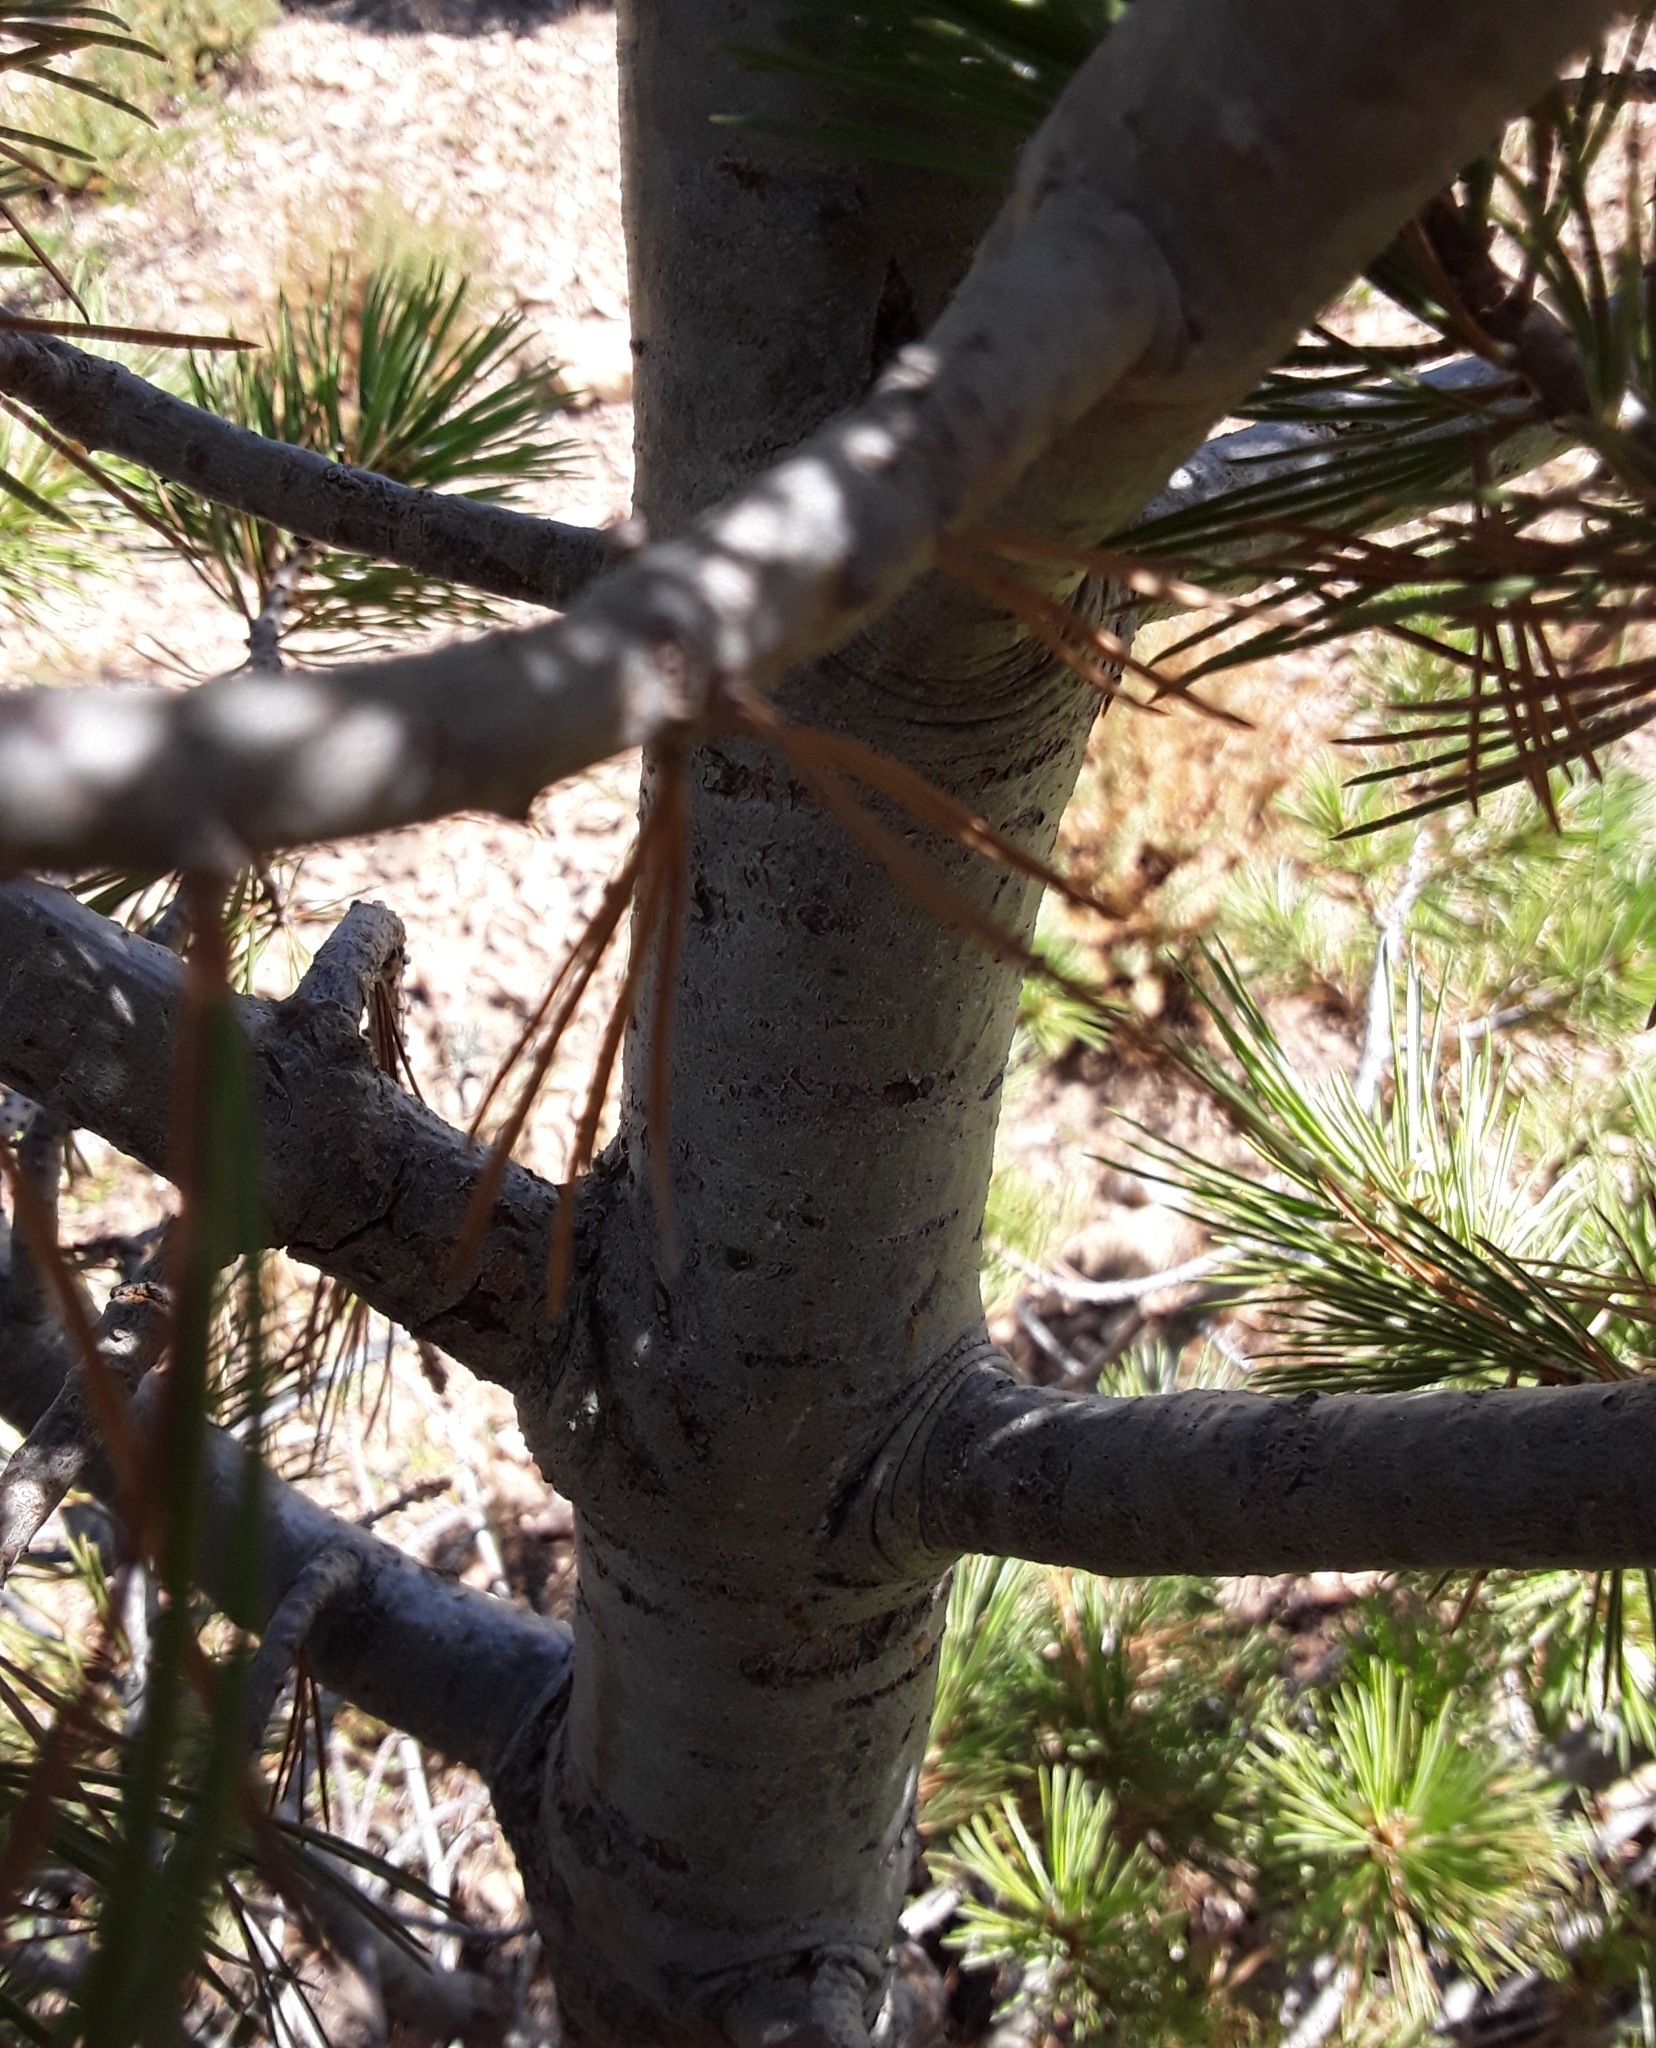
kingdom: Plantae
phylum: Tracheophyta
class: Pinopsida
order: Pinales
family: Pinaceae
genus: Pinus
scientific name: Pinus flexilis
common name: Limber pine
